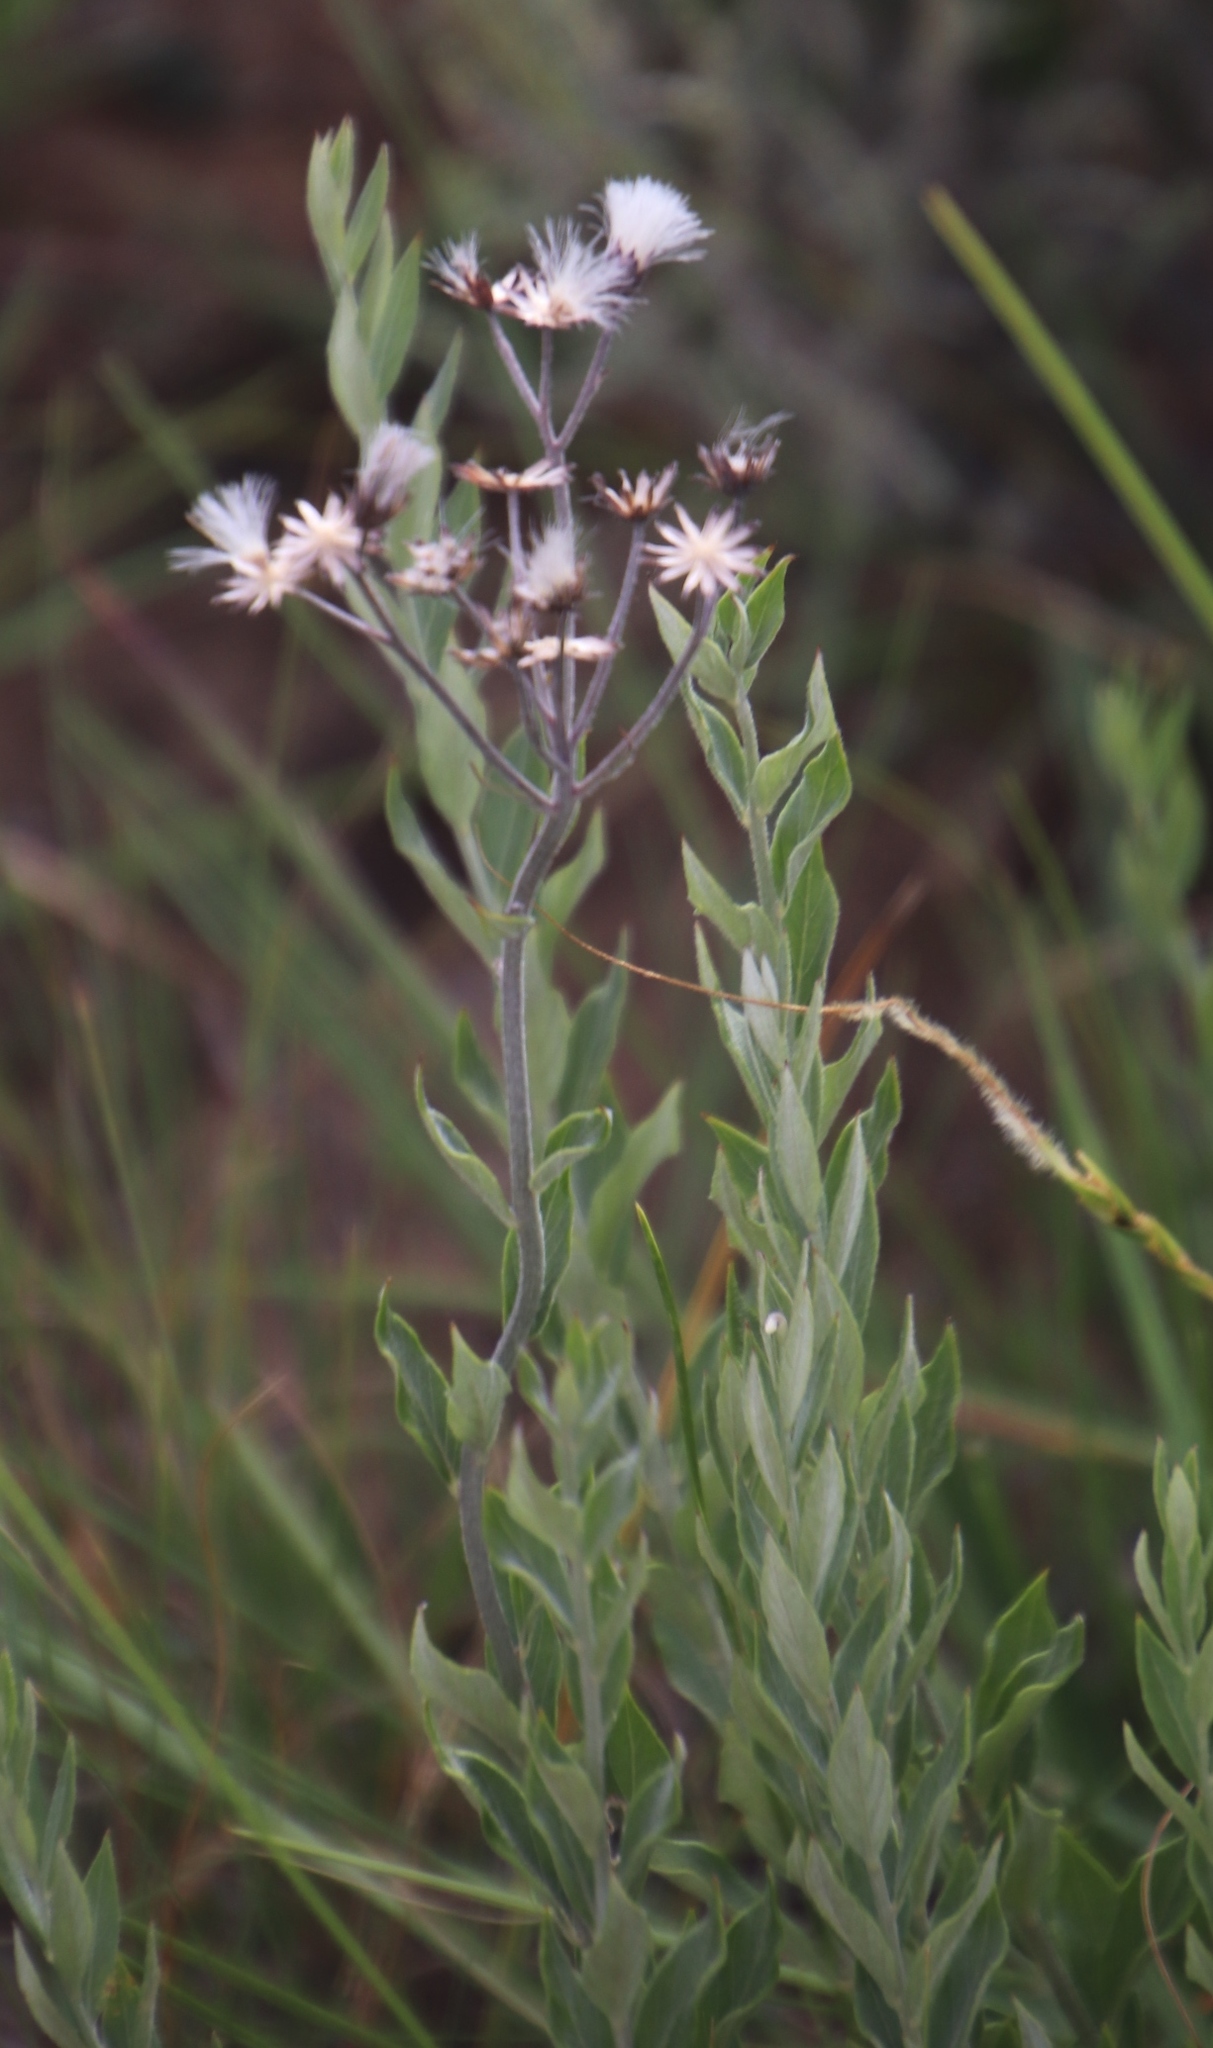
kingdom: Plantae
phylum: Tracheophyta
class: Magnoliopsida
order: Asterales
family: Asteraceae
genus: Hilliardiella
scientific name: Hilliardiella oligocephala
